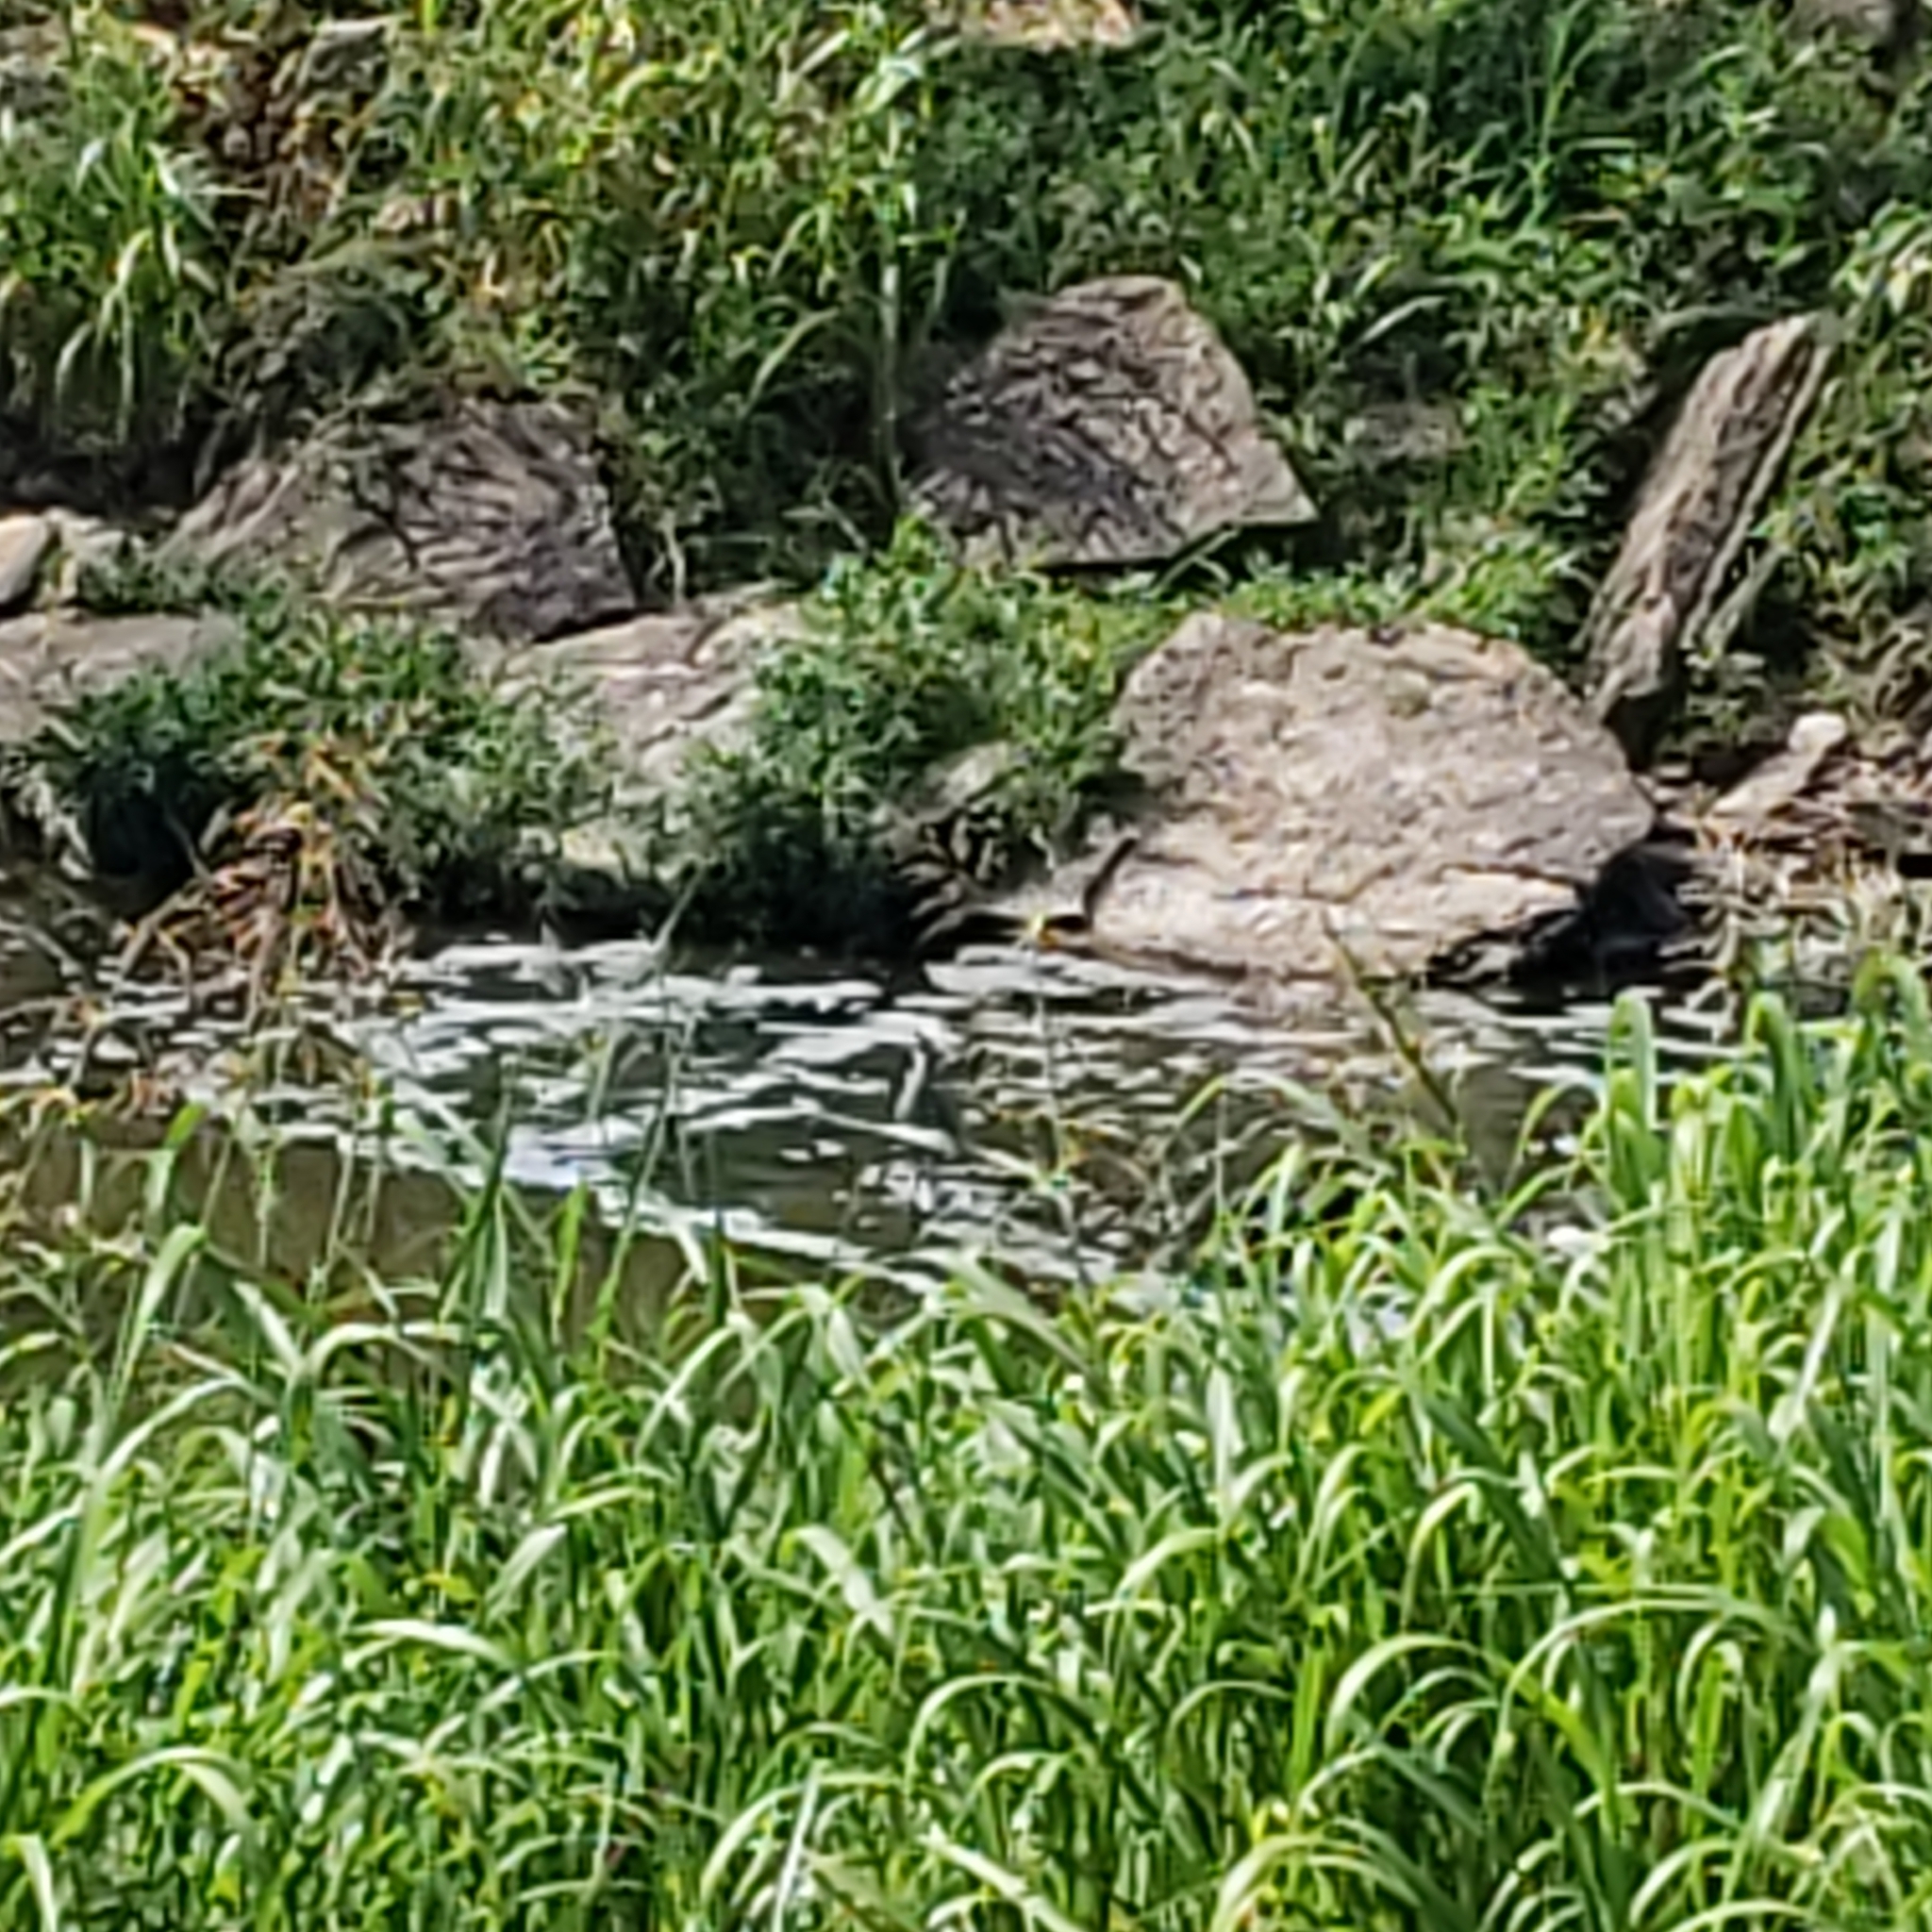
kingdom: Animalia
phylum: Chordata
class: Aves
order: Pelecaniformes
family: Ardeidae
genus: Nyctanassa
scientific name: Nyctanassa violacea
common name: Yellow-crowned night heron
